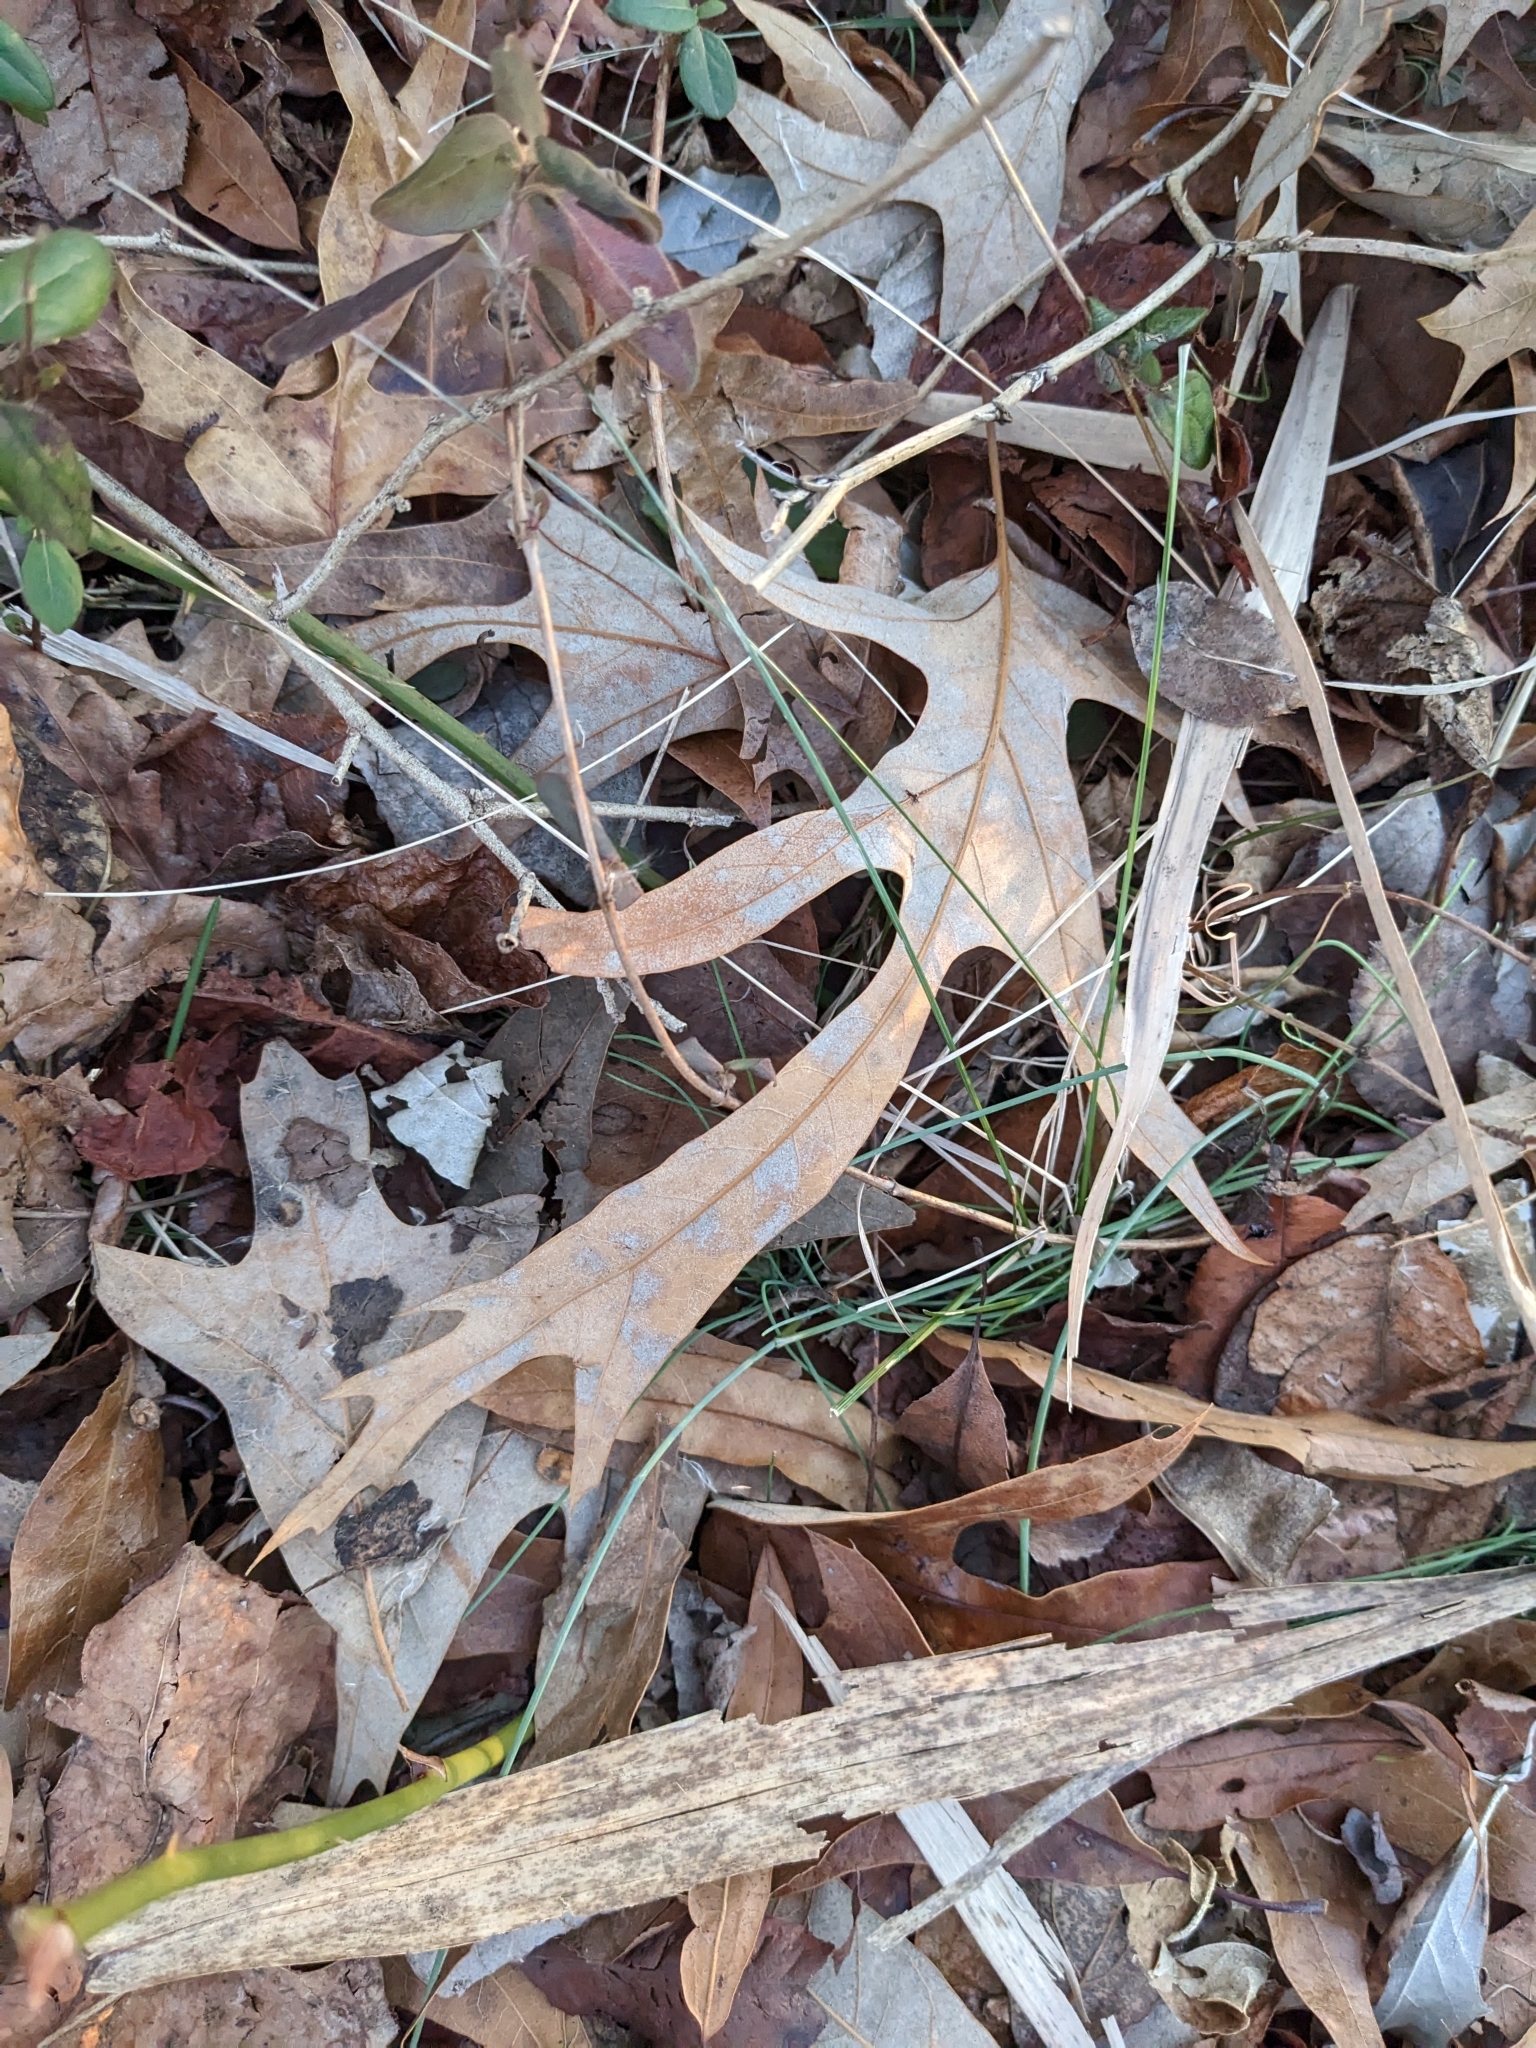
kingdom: Plantae
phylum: Tracheophyta
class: Magnoliopsida
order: Fagales
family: Fagaceae
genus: Quercus
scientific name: Quercus falcata
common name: Southern red oak
